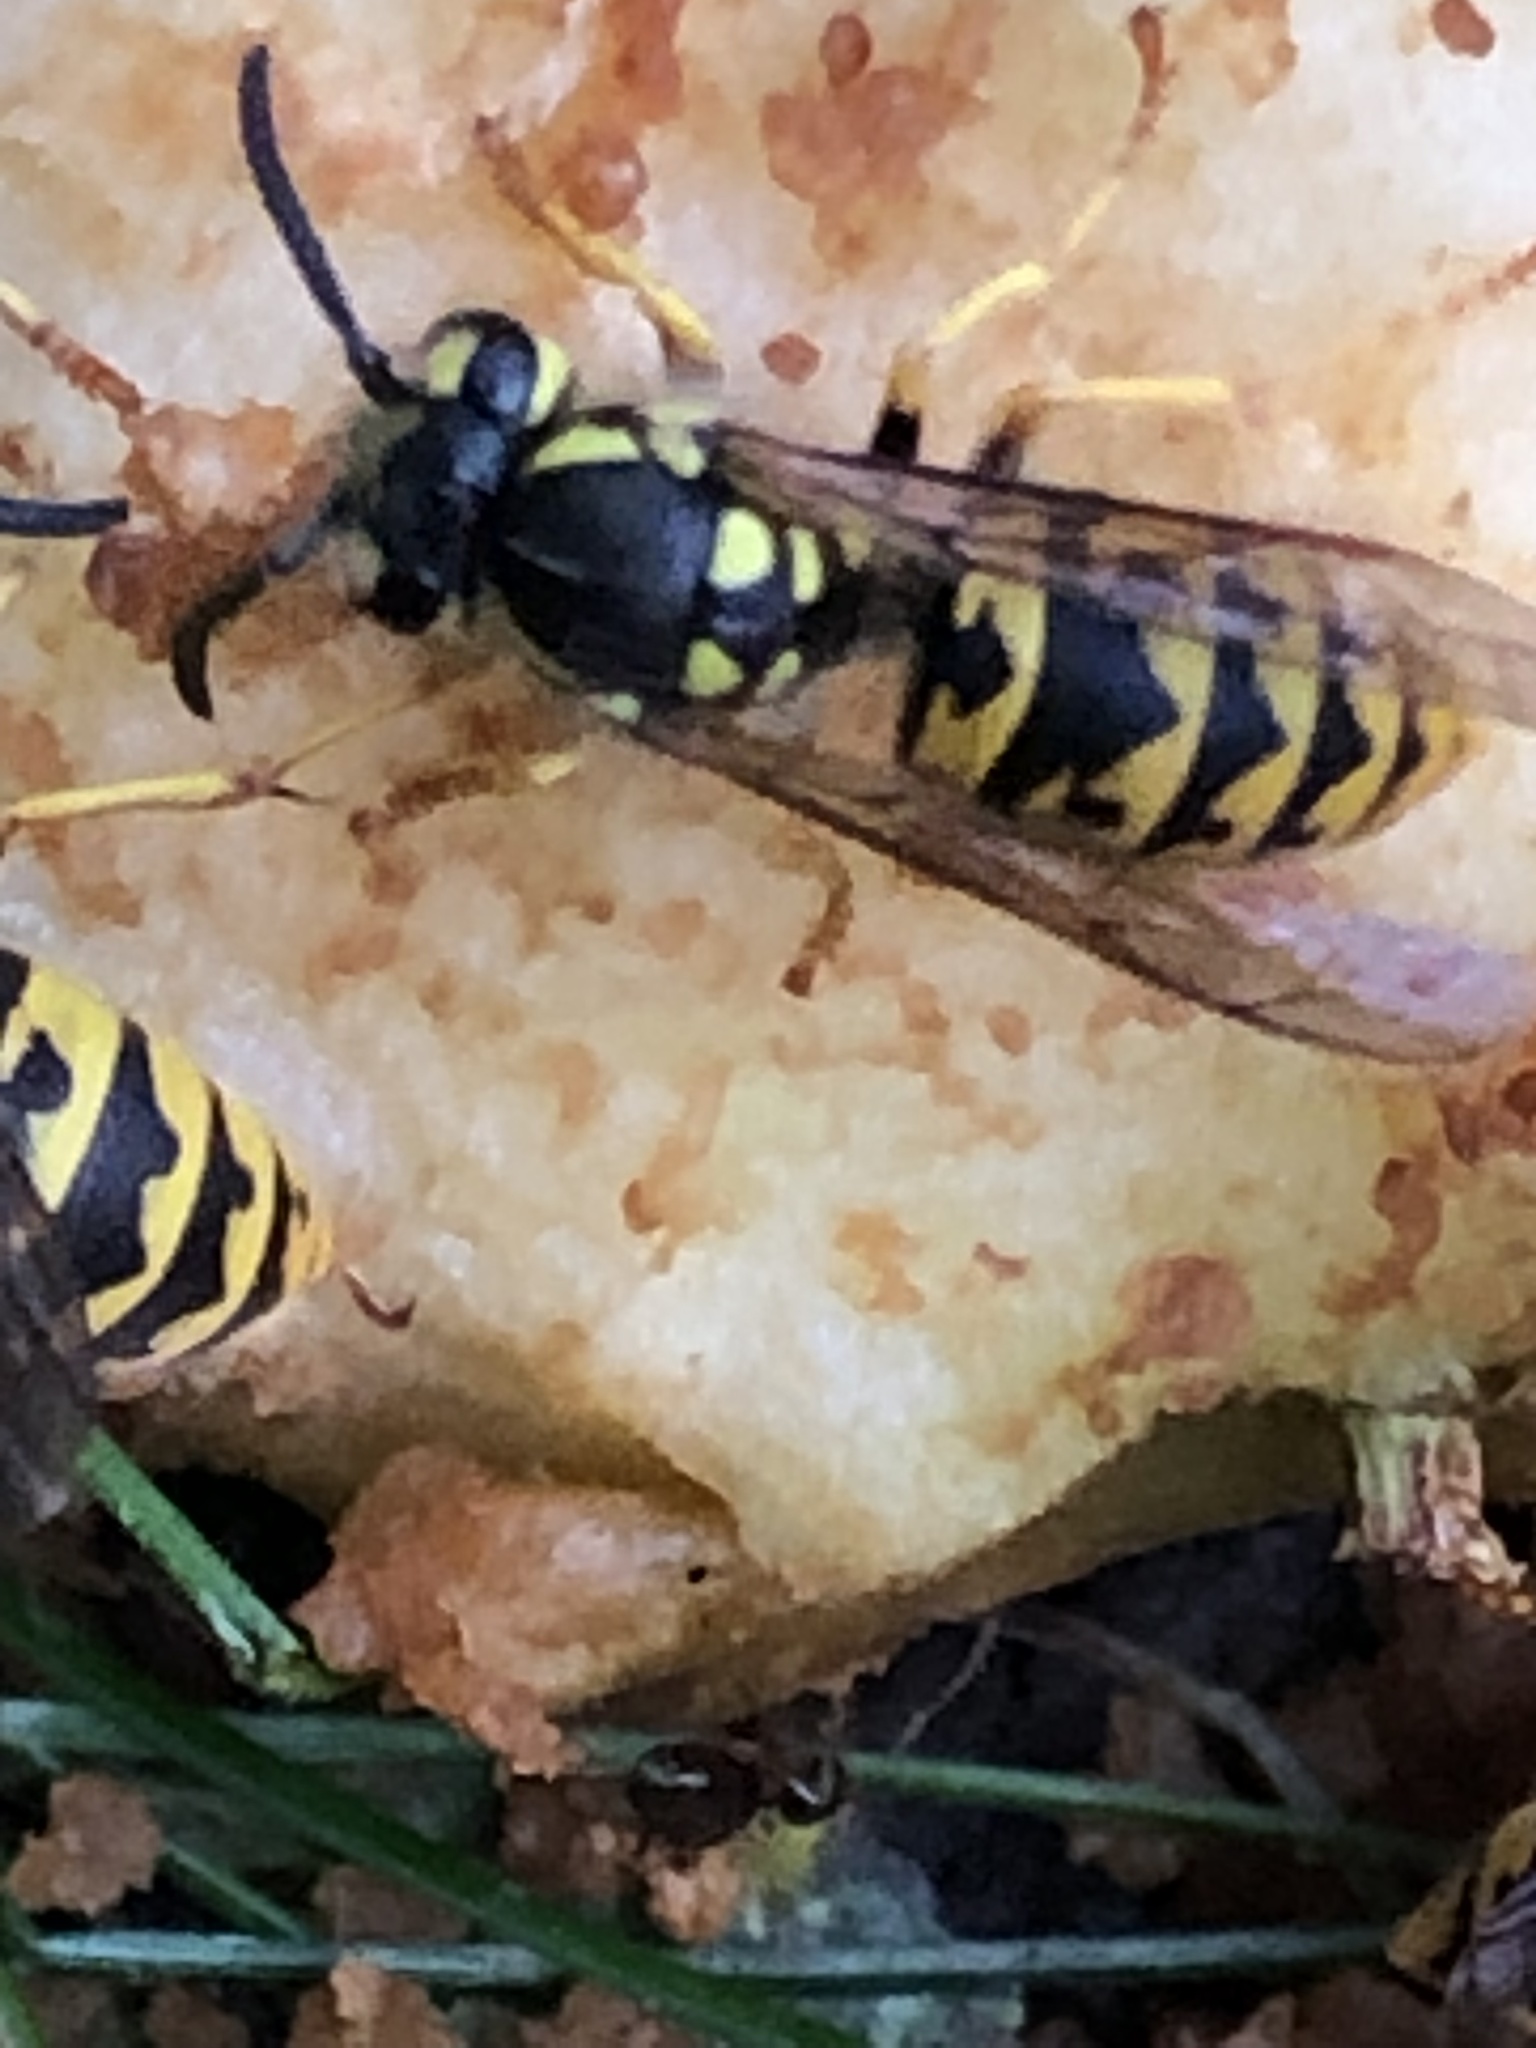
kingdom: Animalia
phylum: Arthropoda
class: Insecta
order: Hymenoptera
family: Vespidae
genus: Vespula
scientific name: Vespula germanica
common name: German wasp
